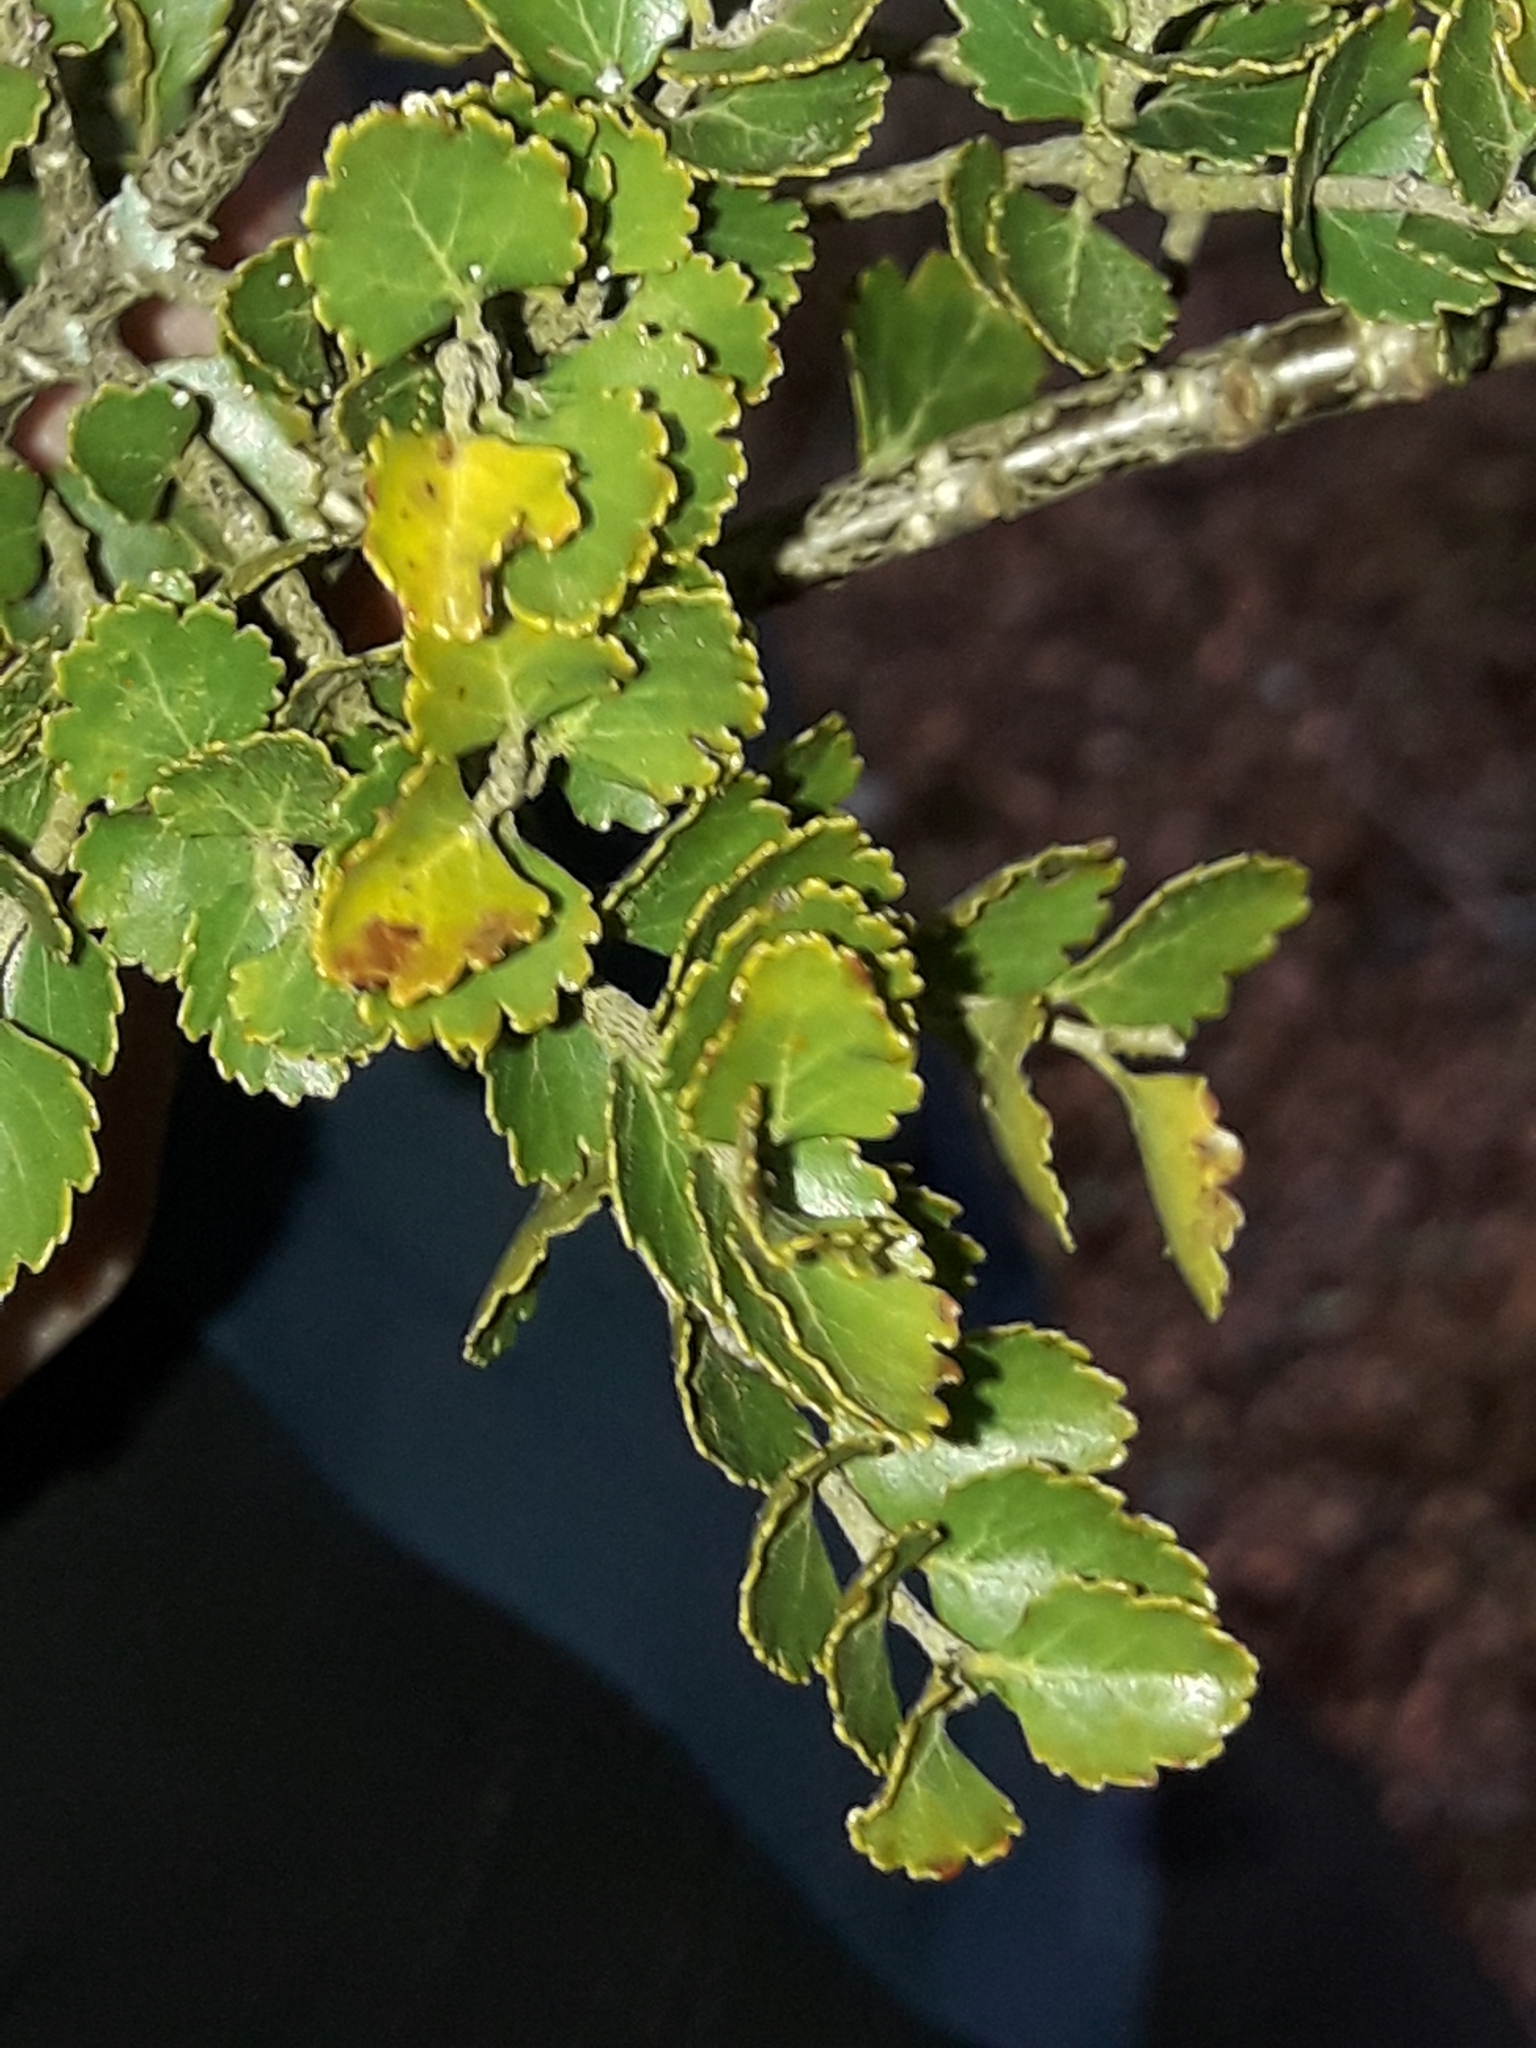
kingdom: Plantae
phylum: Tracheophyta
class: Magnoliopsida
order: Fagales
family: Nothofagaceae
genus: Nothofagus
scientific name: Nothofagus menziesii
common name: Silver beech
